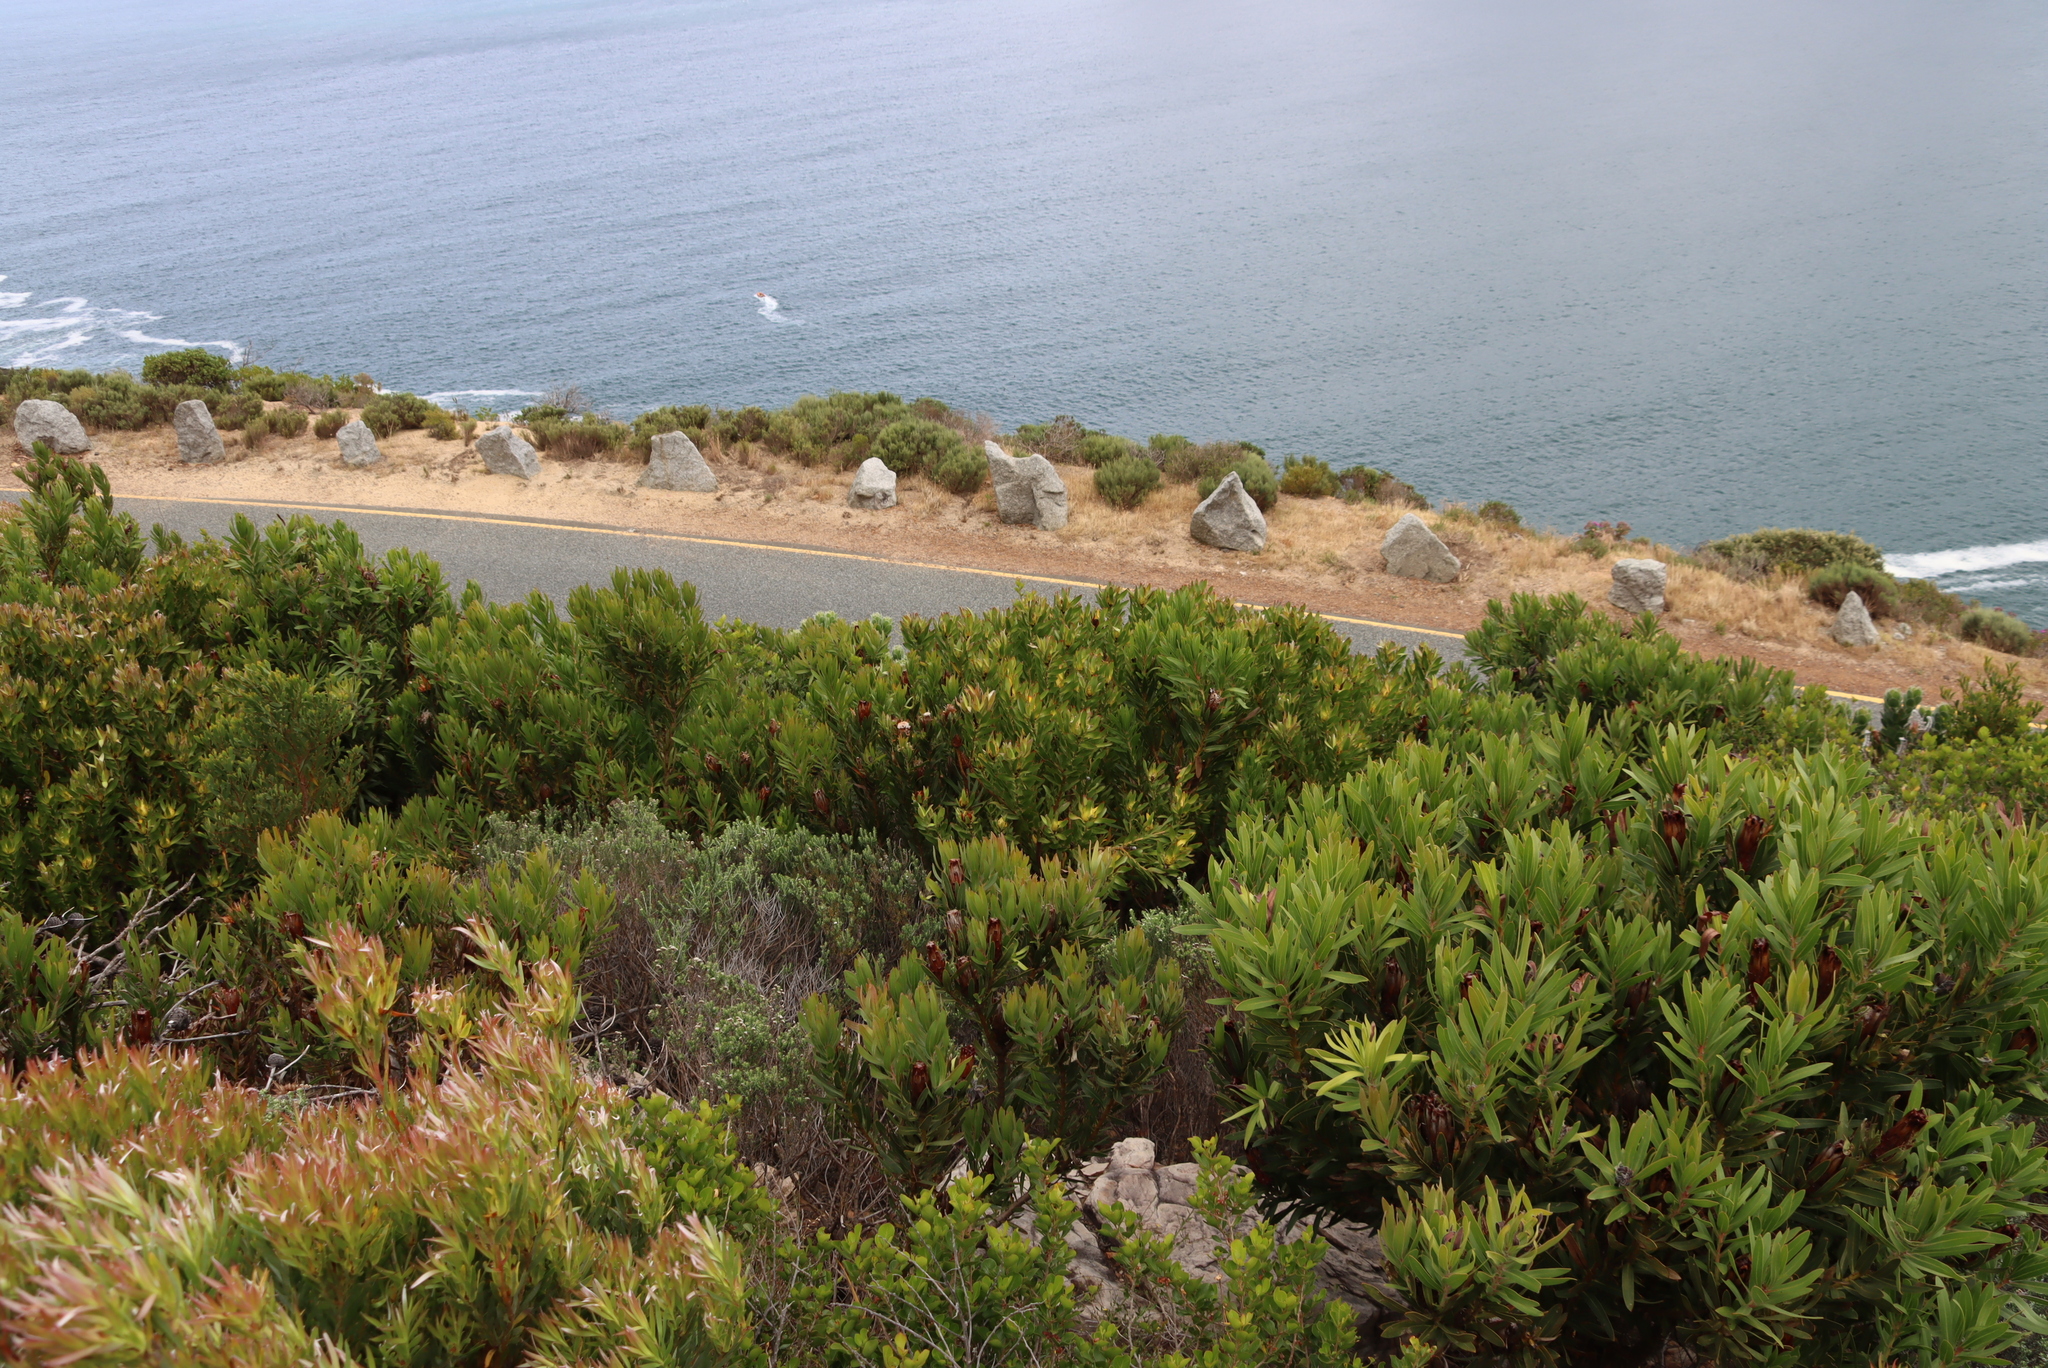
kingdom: Plantae
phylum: Tracheophyta
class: Magnoliopsida
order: Proteales
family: Proteaceae
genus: Leucadendron
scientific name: Leucadendron laureolum
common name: Golden sunshinebush
